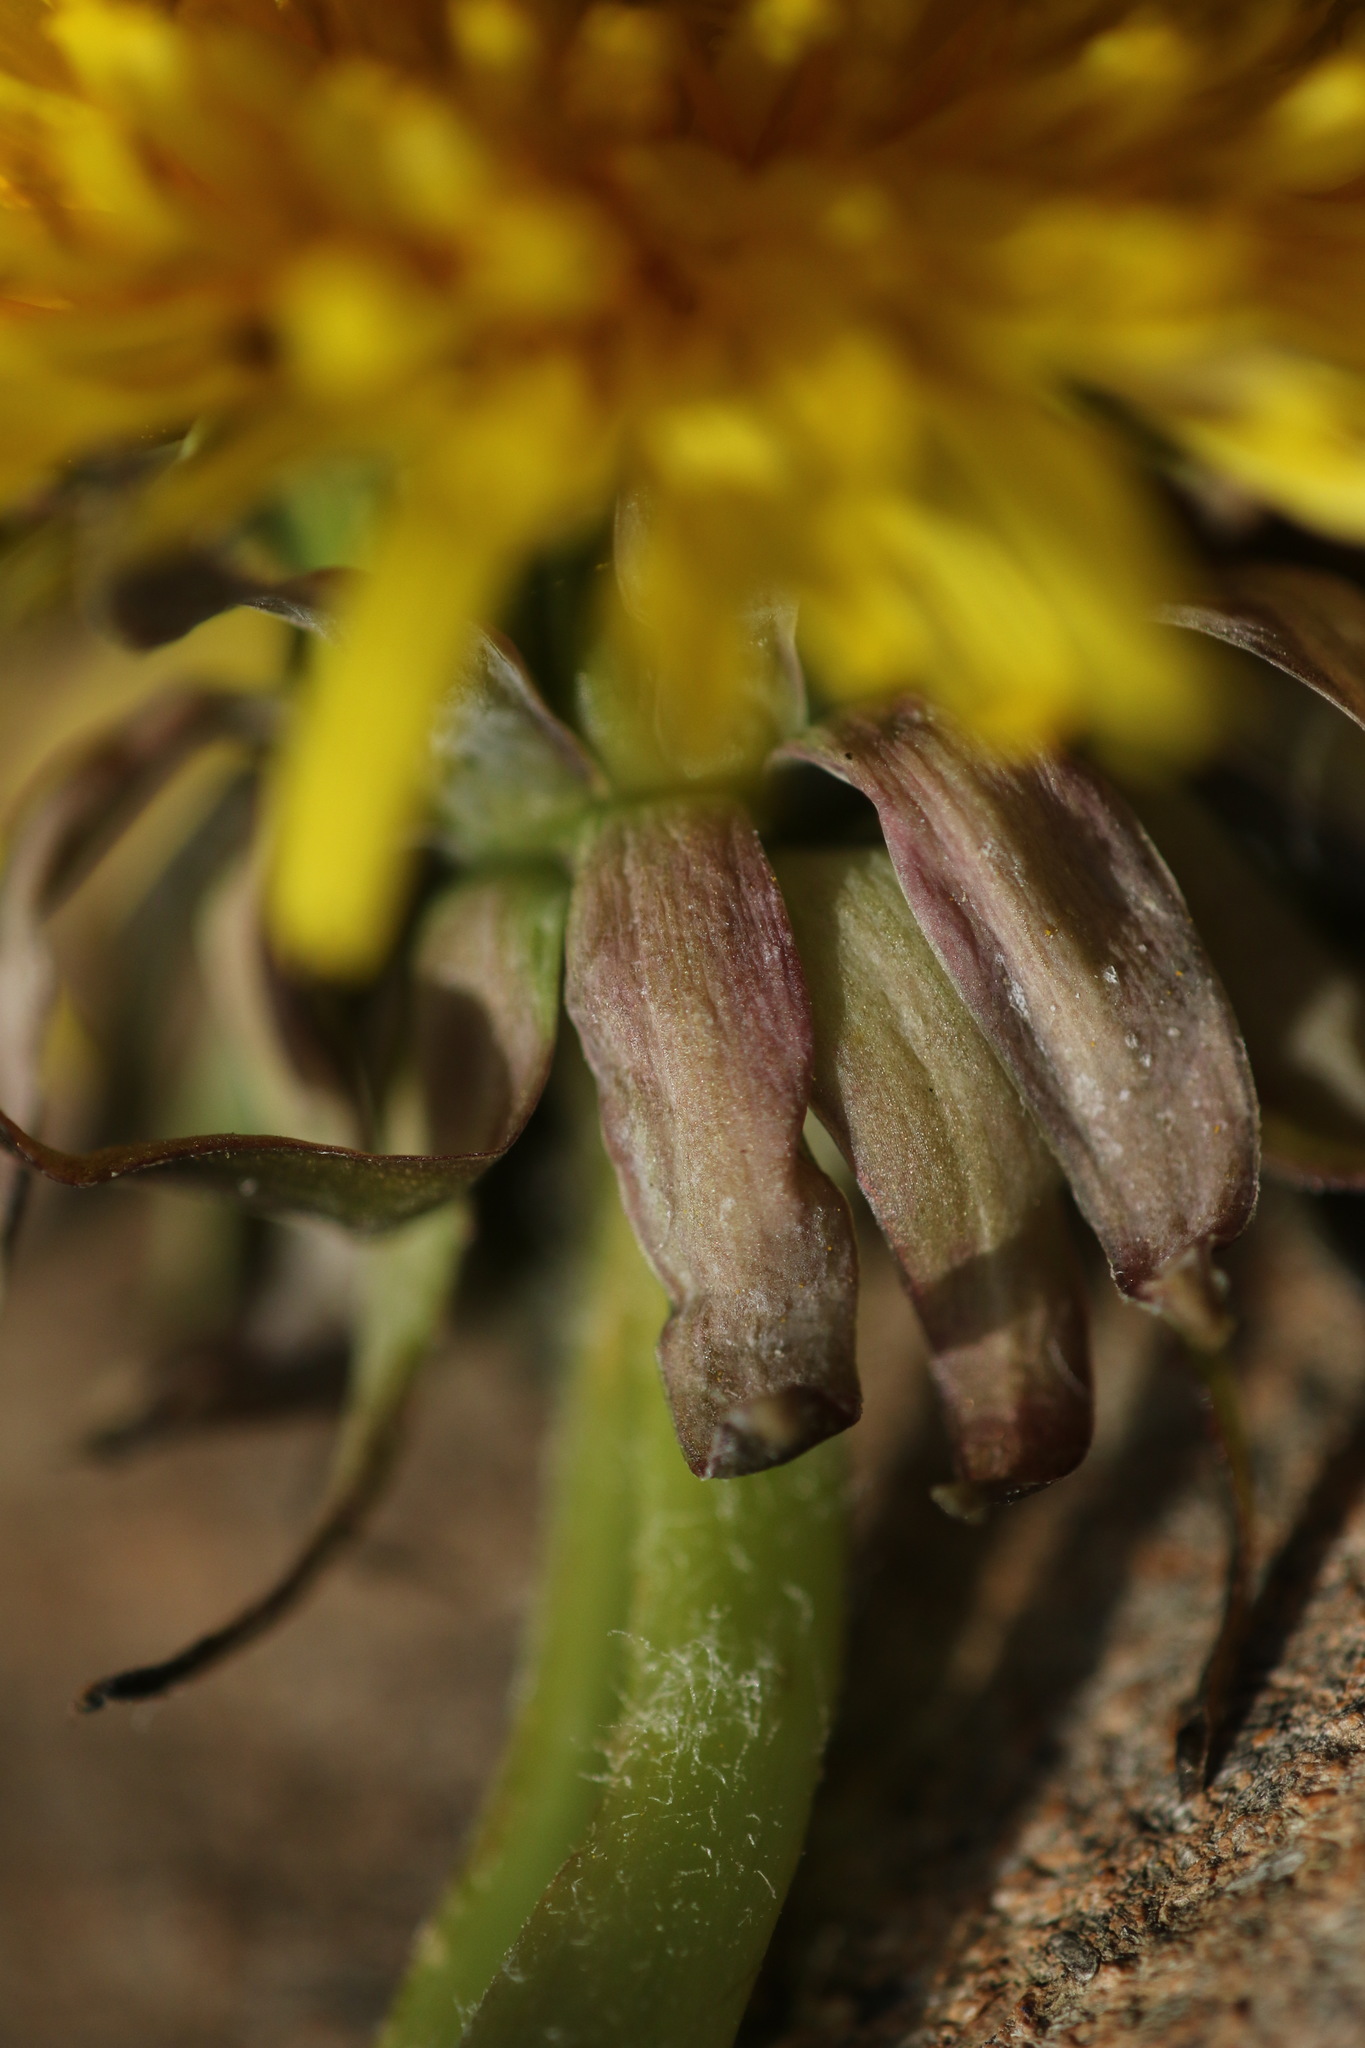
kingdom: Plantae
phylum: Tracheophyta
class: Magnoliopsida
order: Asterales
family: Asteraceae
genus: Taraxacum
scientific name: Taraxacum piceatum
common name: Leaden-bracted dandelion
